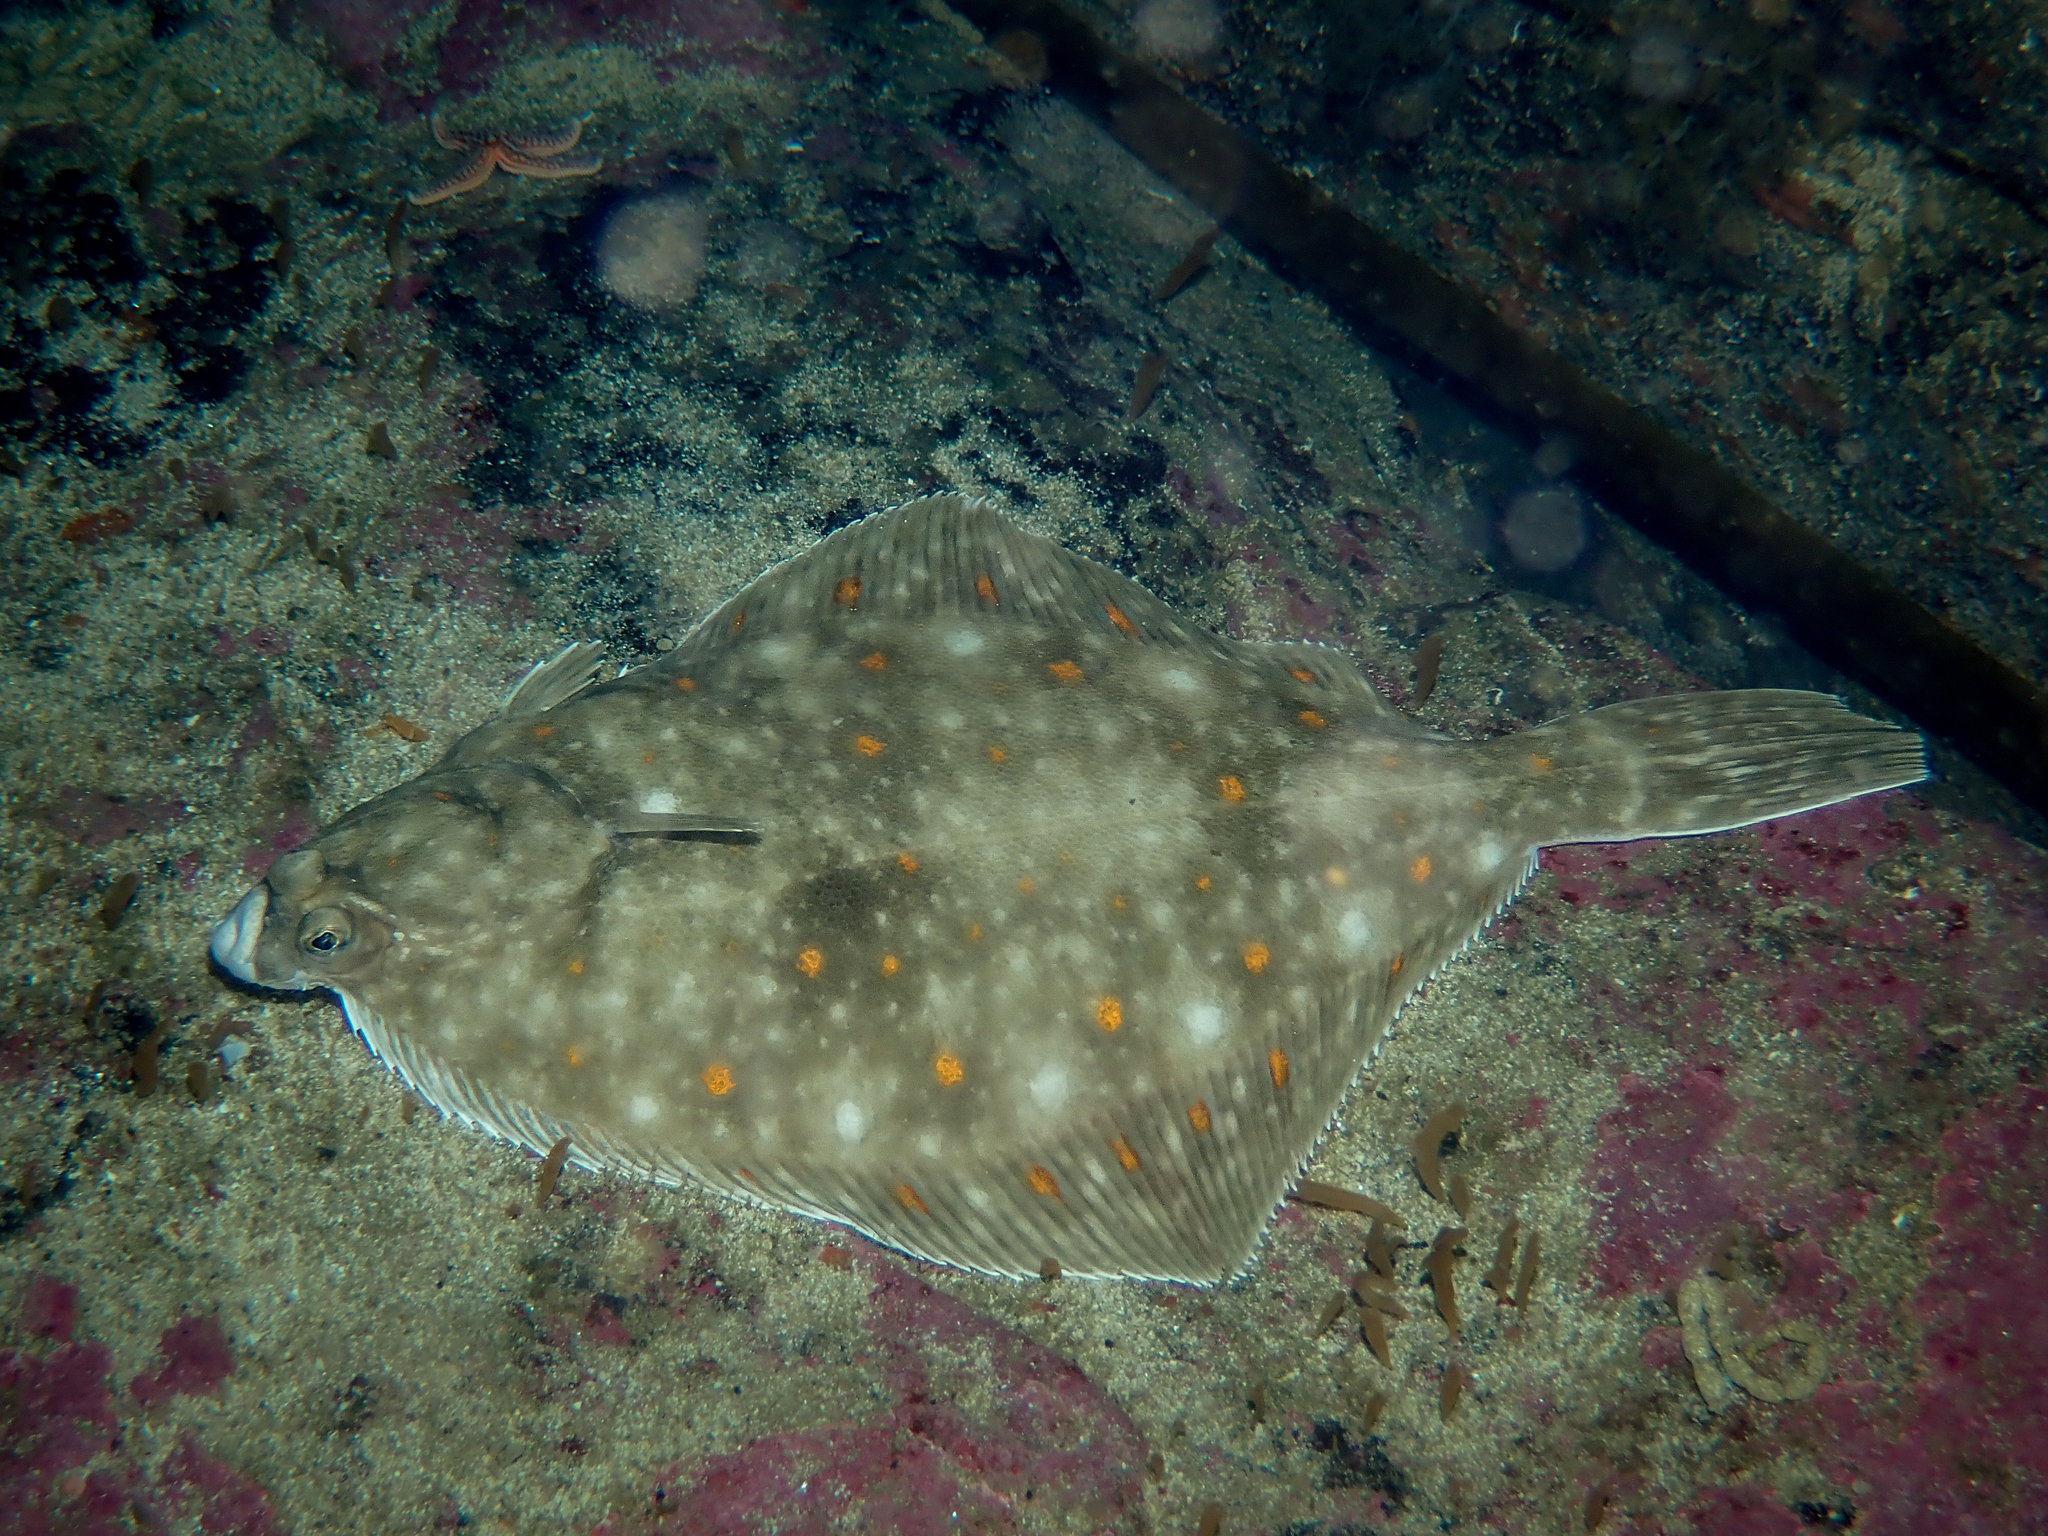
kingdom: Animalia
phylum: Chordata
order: Pleuronectiformes
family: Pleuronectidae
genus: Pleuronectes
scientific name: Pleuronectes platessa
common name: Plaice
